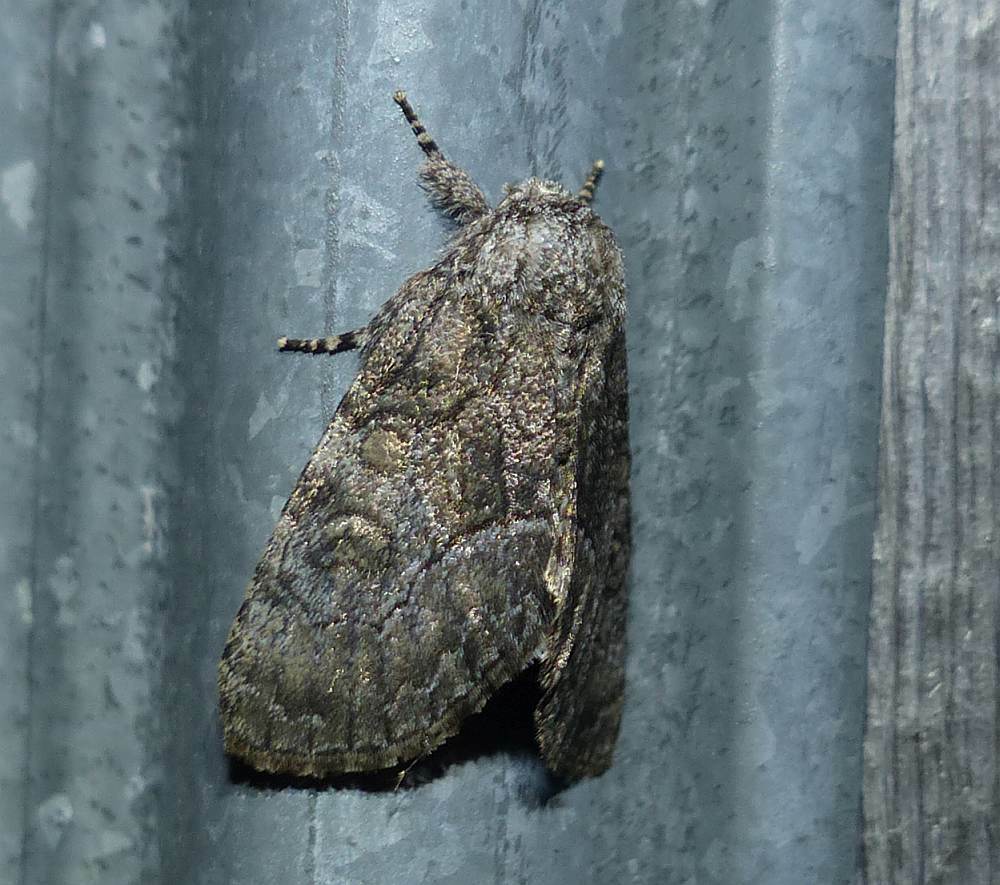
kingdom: Animalia
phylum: Arthropoda
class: Insecta
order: Lepidoptera
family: Noctuidae
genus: Raphia
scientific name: Raphia frater
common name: Brother
